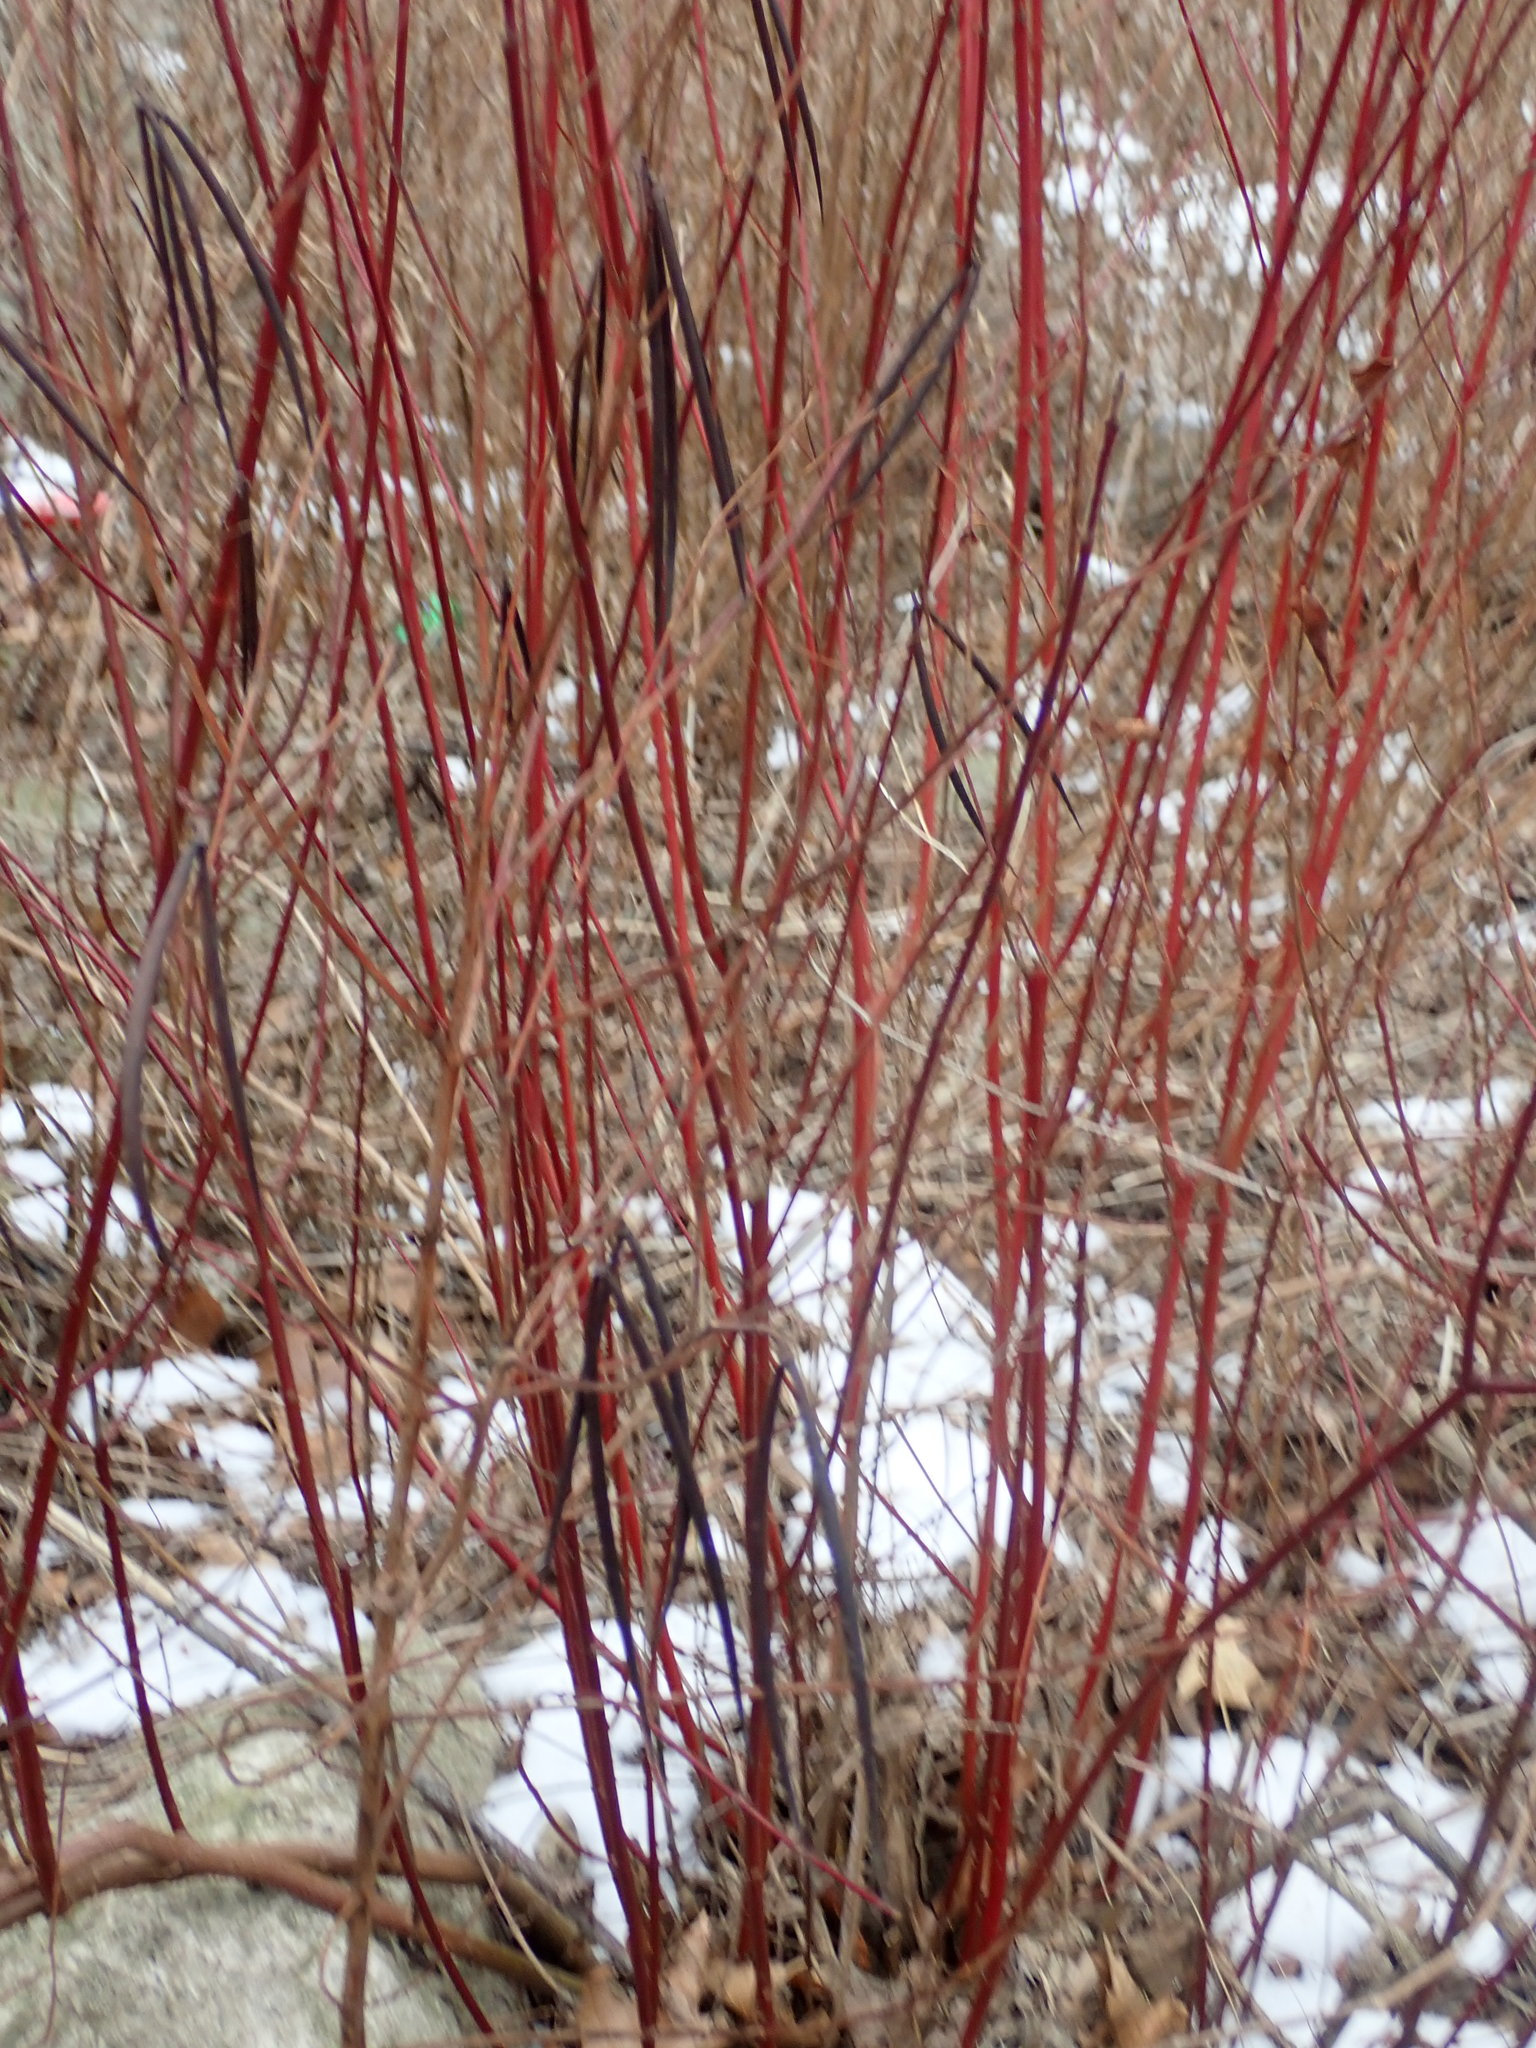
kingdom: Plantae
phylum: Tracheophyta
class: Magnoliopsida
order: Gentianales
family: Apocynaceae
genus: Apocynum
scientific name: Apocynum cannabinum
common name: Hemp dogbane
